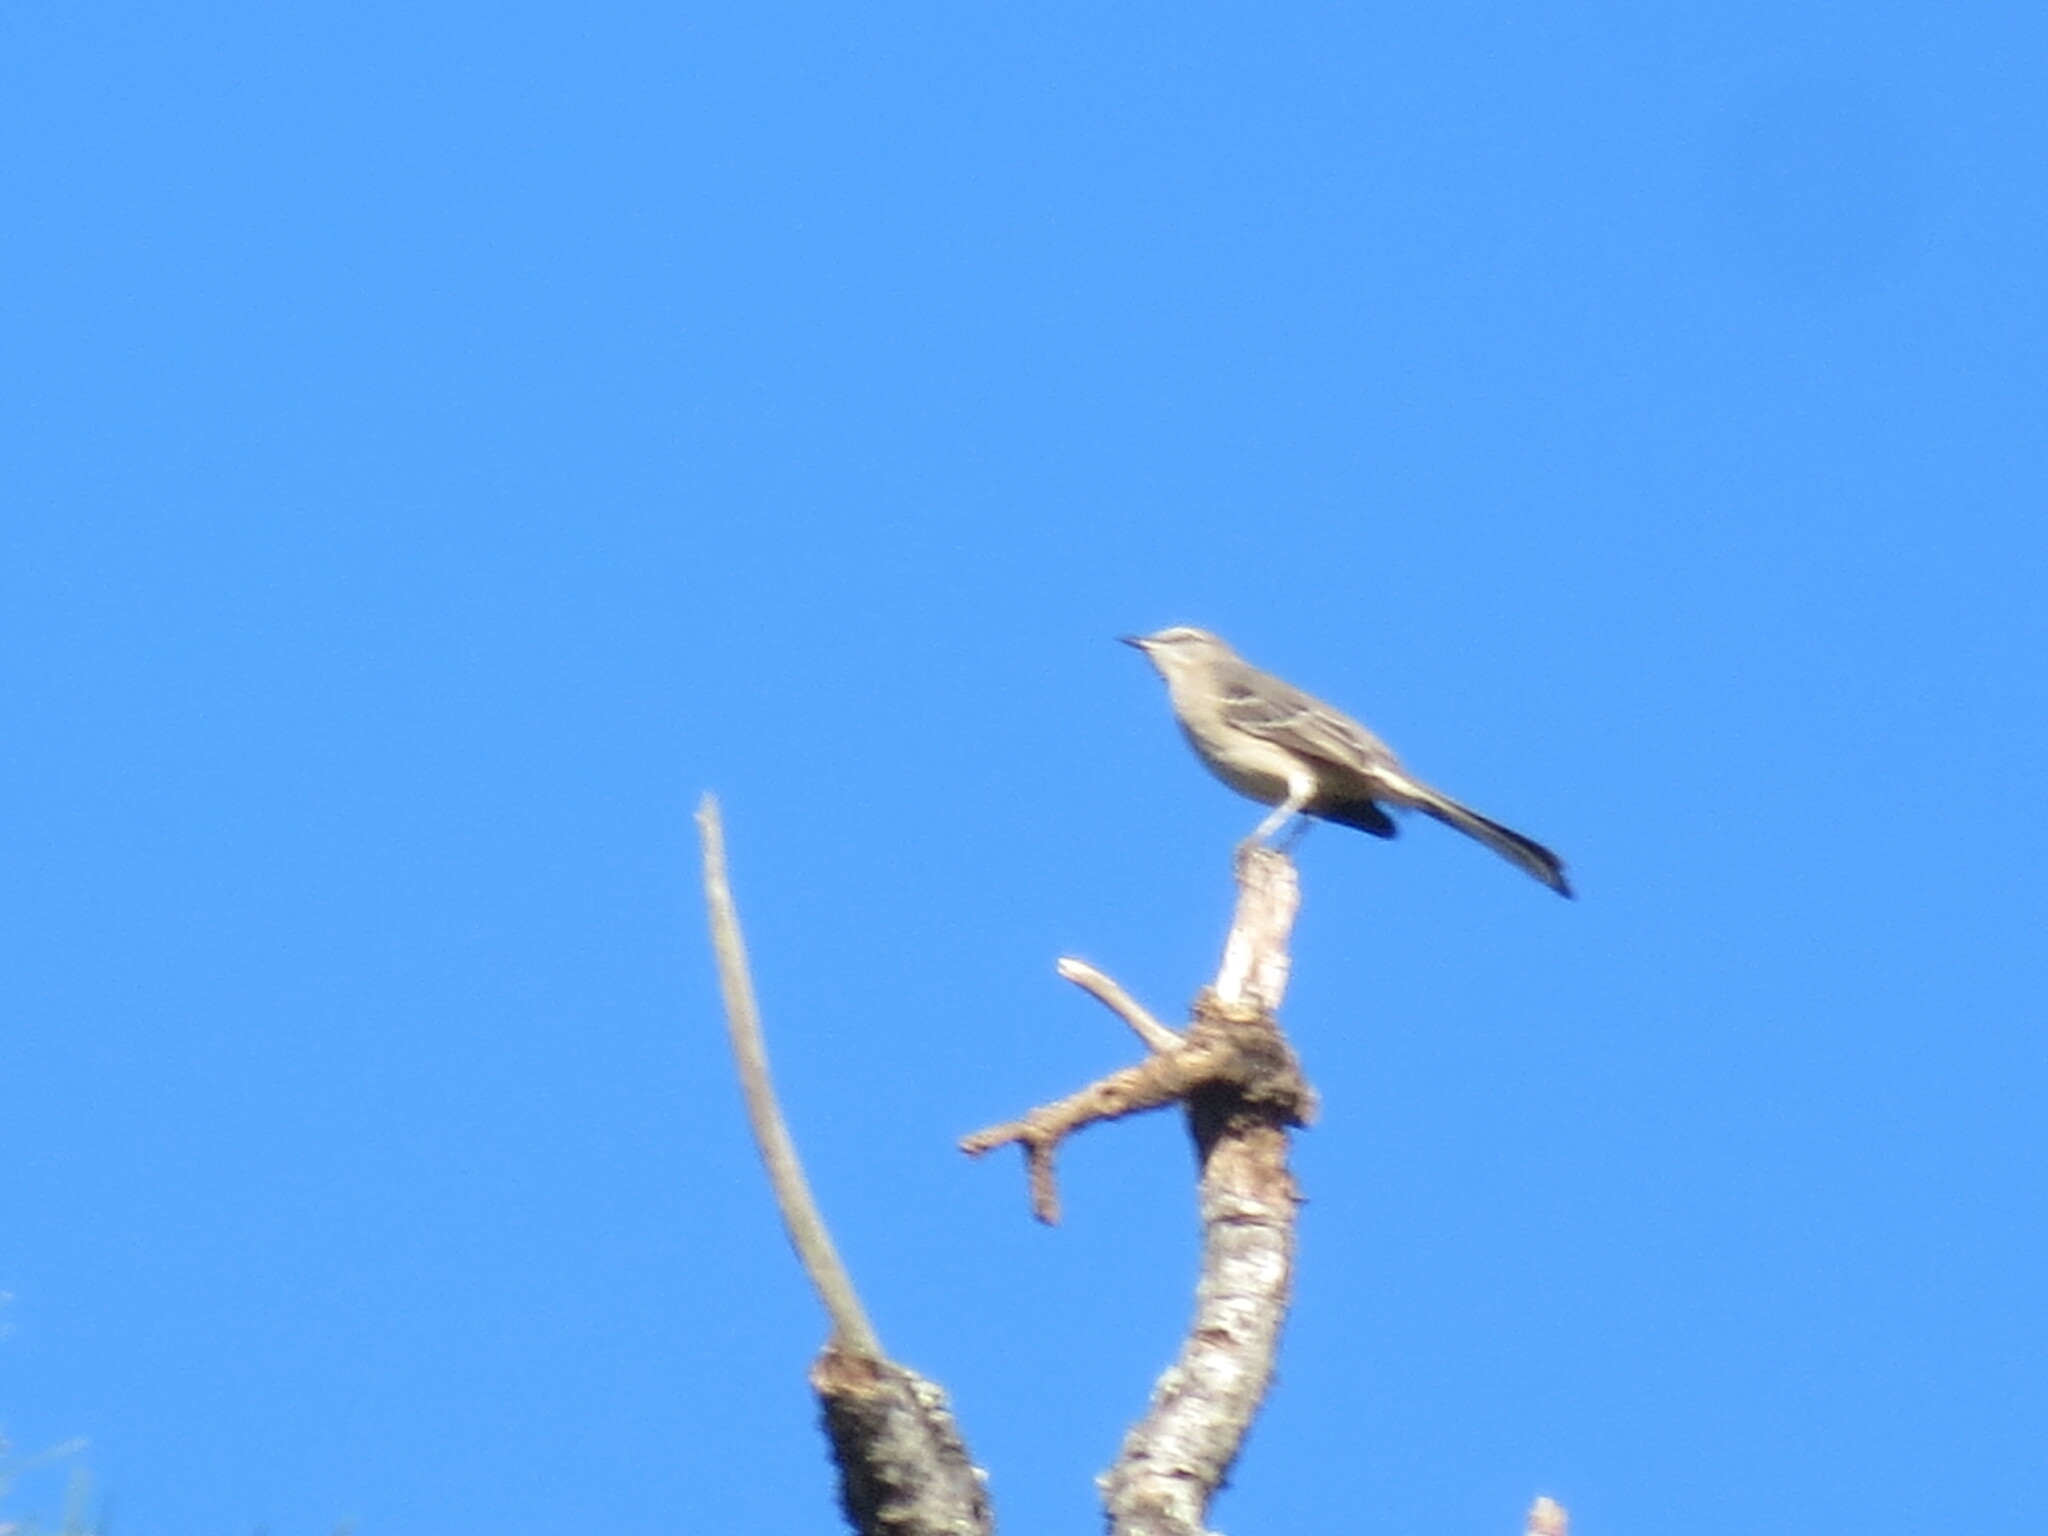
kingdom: Animalia
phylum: Chordata
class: Aves
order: Passeriformes
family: Mimidae
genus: Mimus
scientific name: Mimus polyglottos
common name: Northern mockingbird
